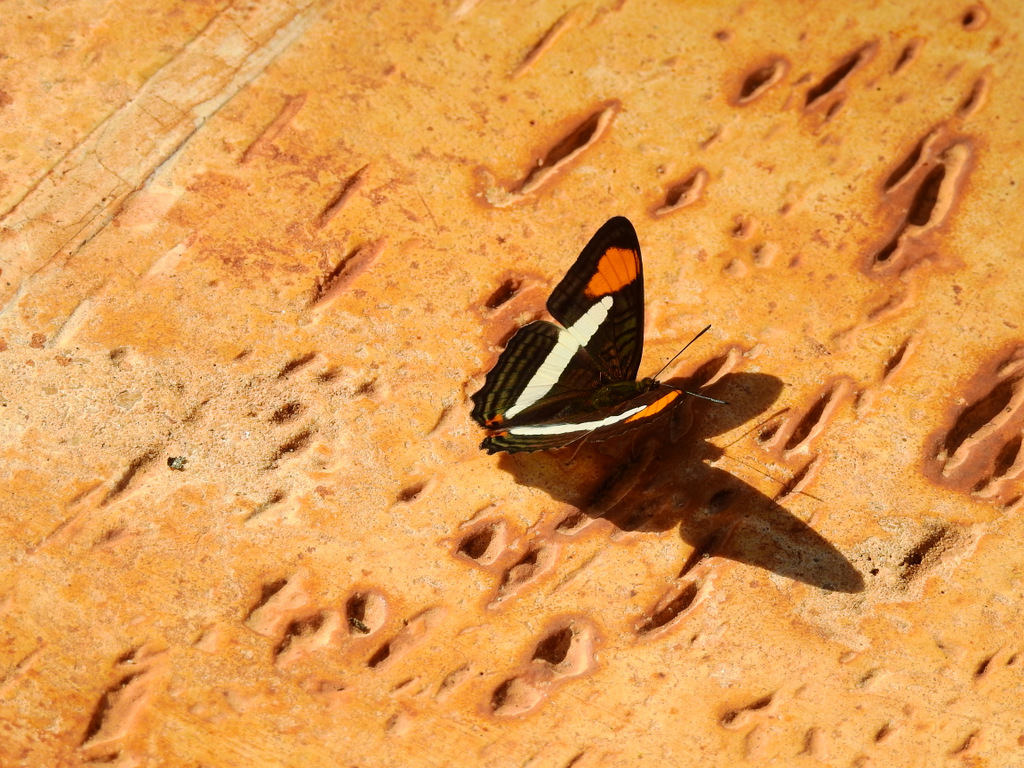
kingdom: Animalia
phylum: Arthropoda
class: Insecta
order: Lepidoptera
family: Nymphalidae
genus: Limenitis
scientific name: Limenitis falcipennis
